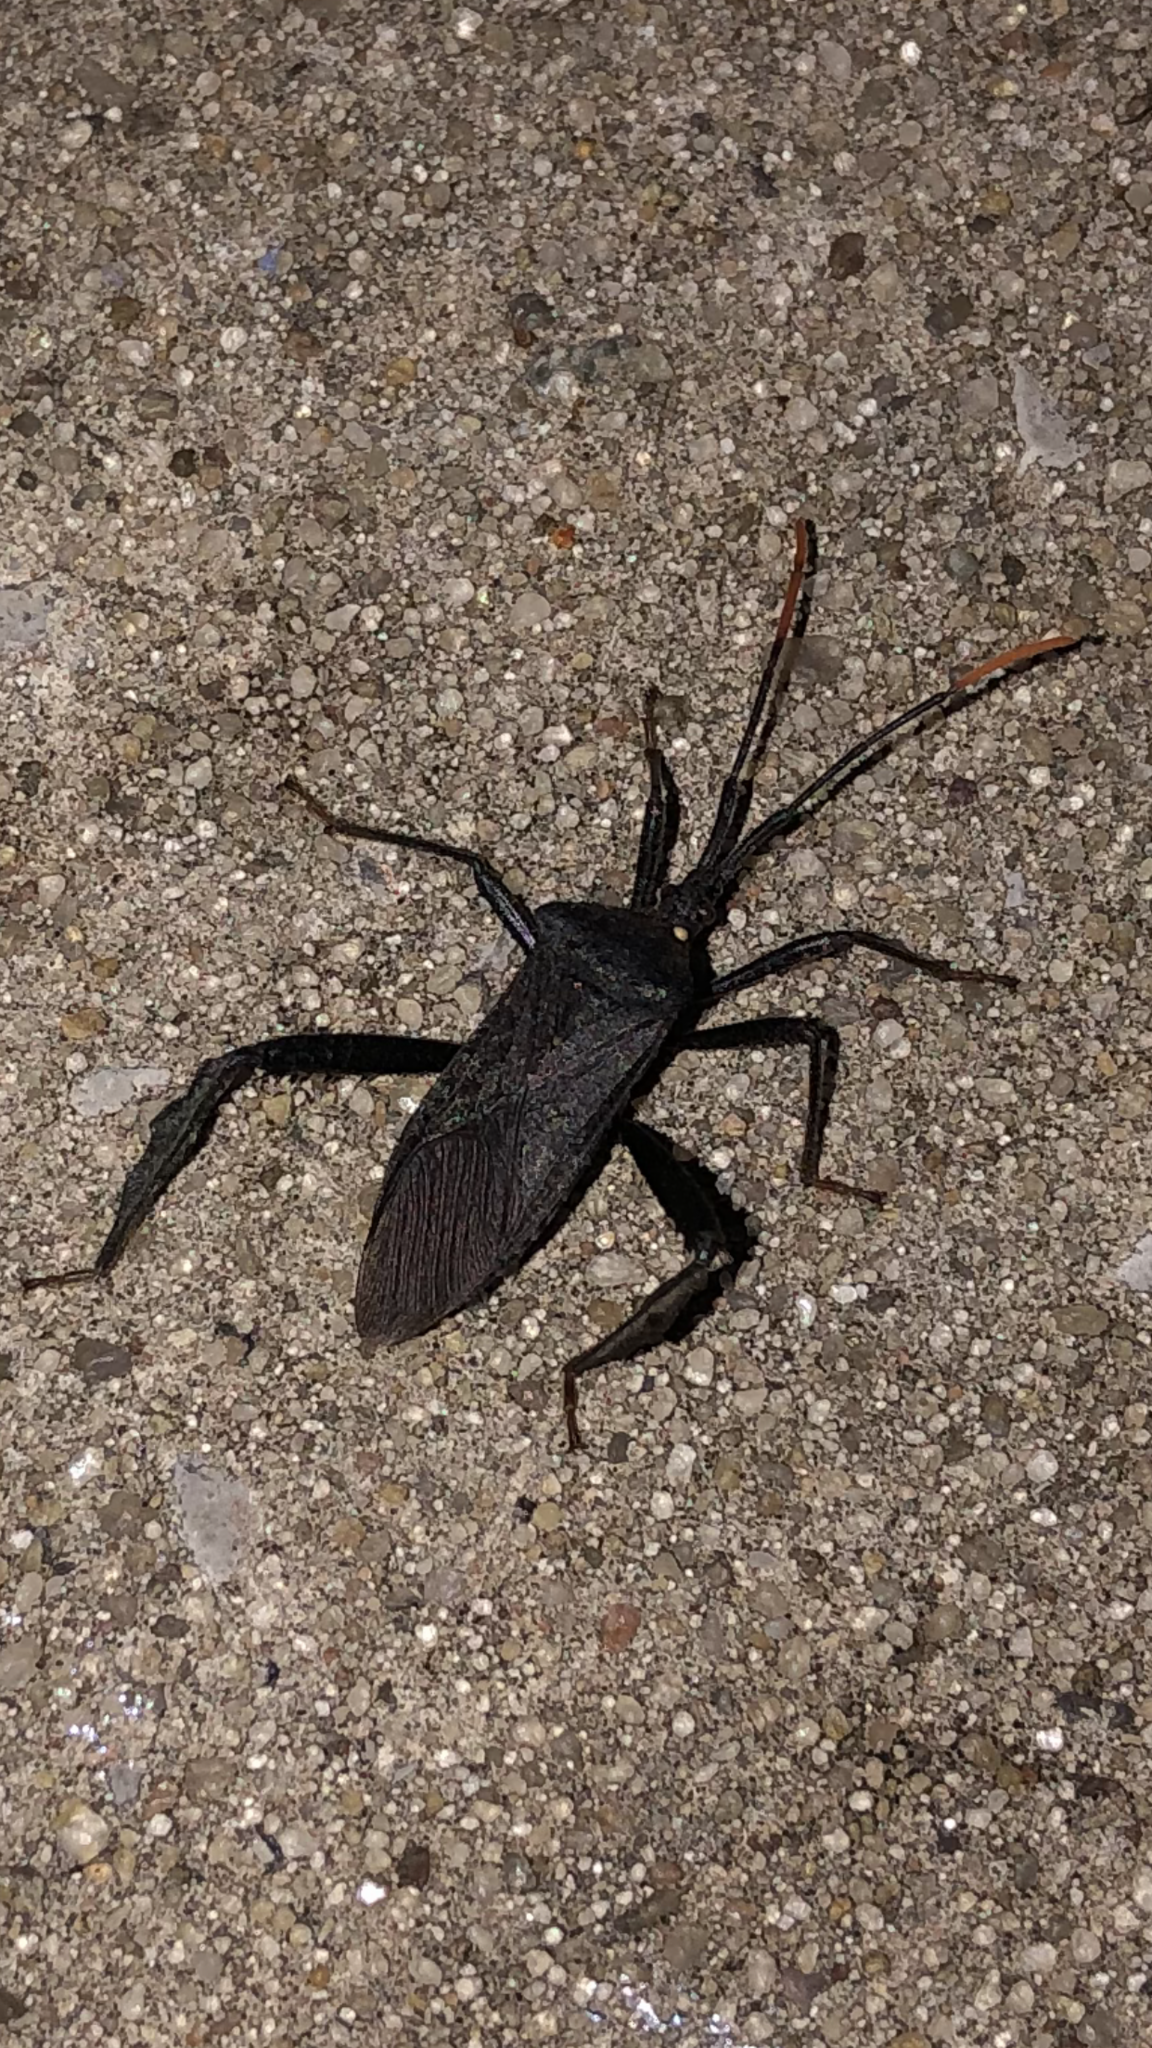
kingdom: Animalia
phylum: Arthropoda
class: Insecta
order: Hemiptera
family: Coreidae
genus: Acanthocephala
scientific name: Acanthocephala terminalis
